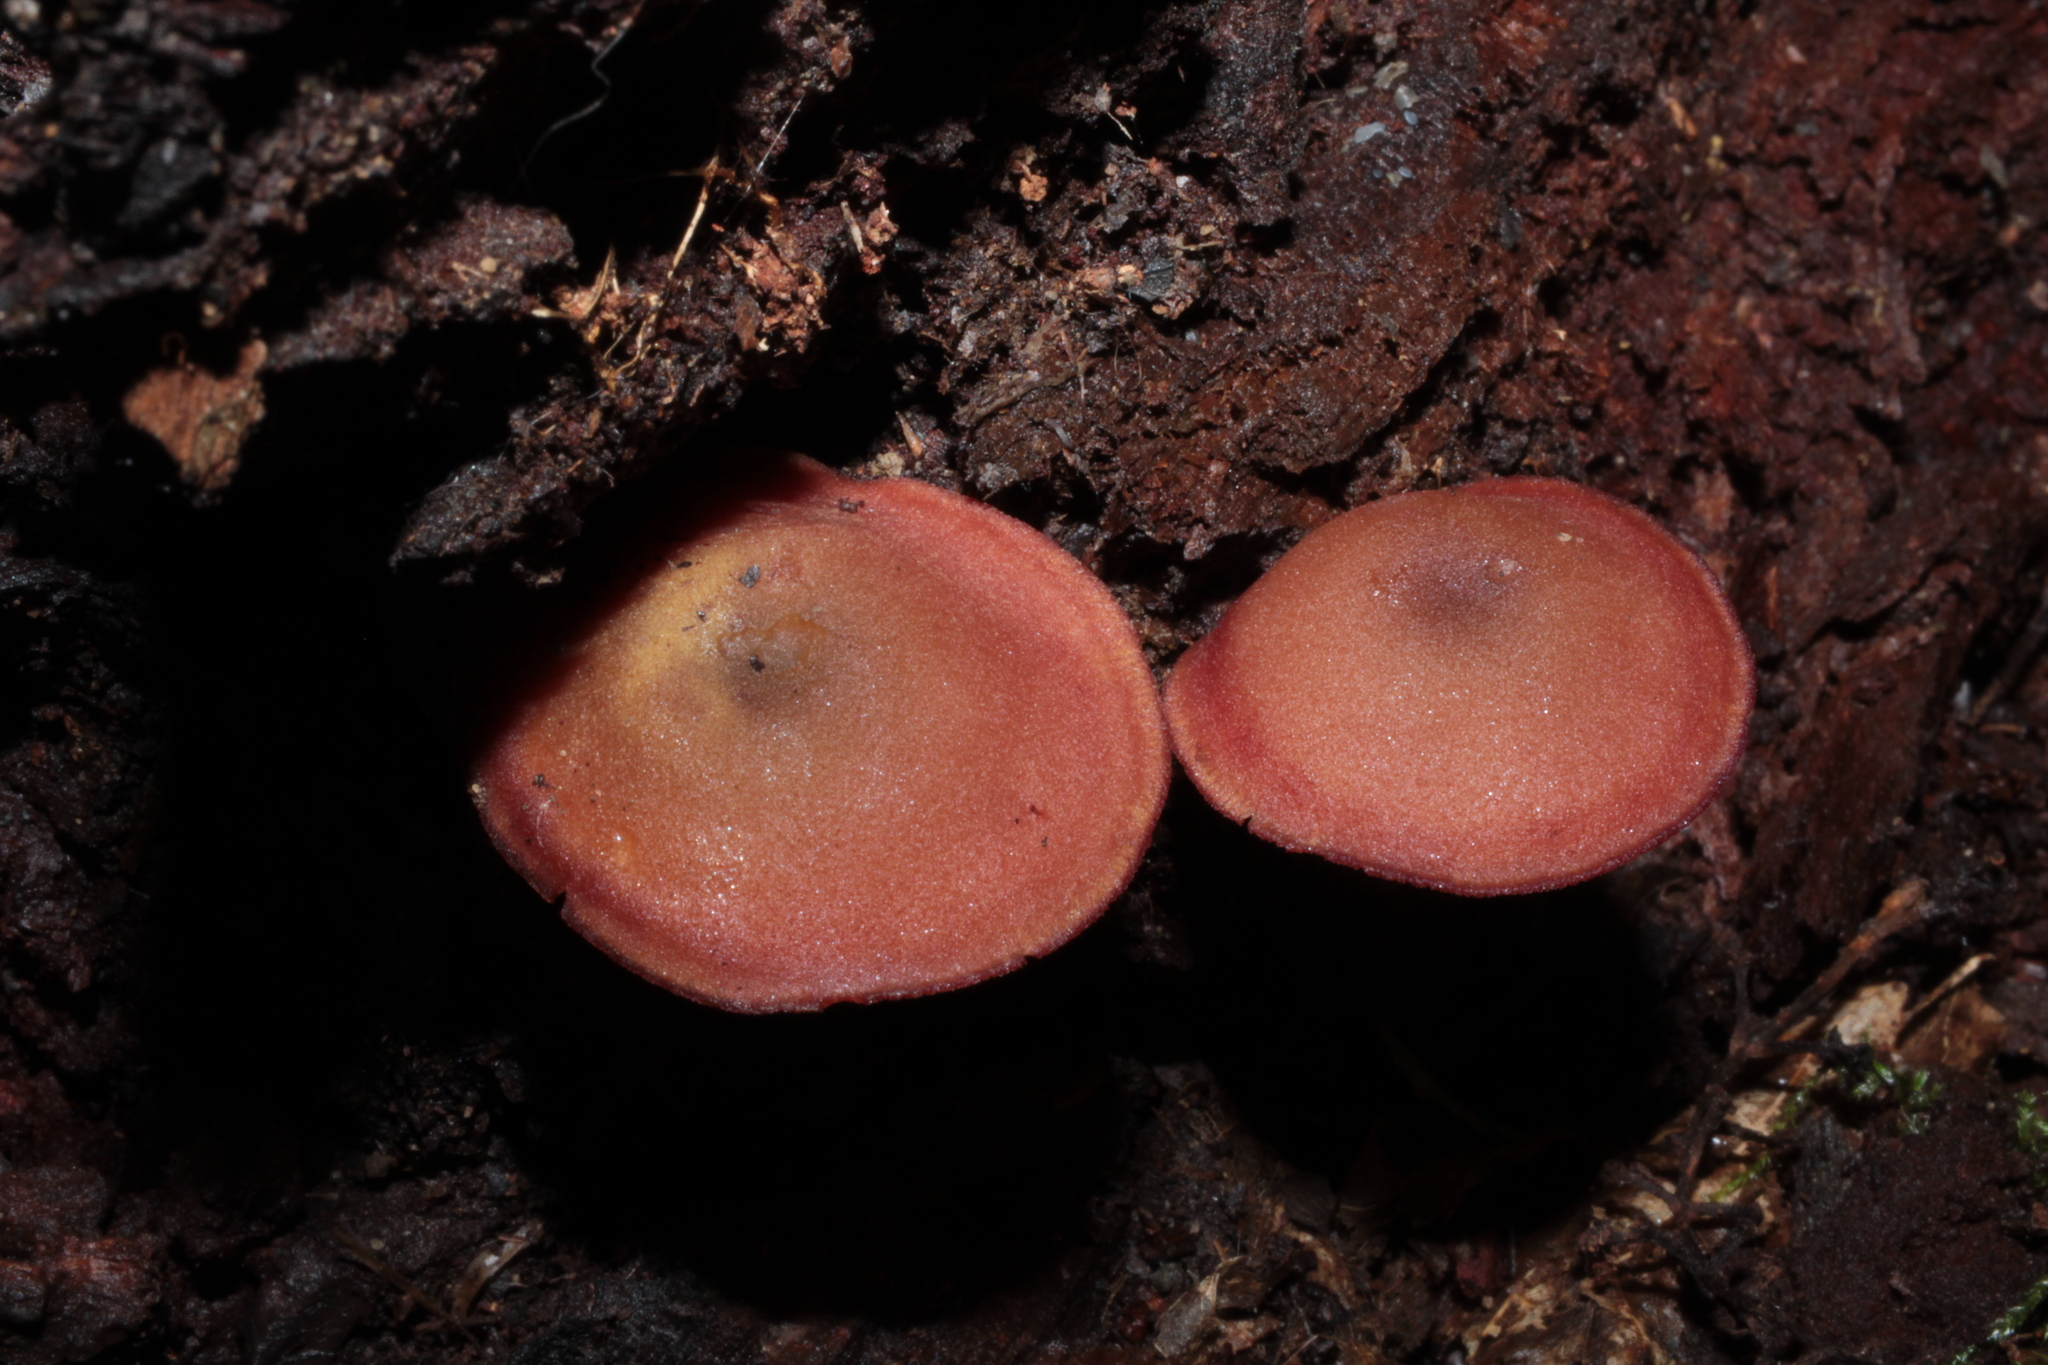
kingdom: Fungi
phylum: Basidiomycota
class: Agaricomycetes
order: Agaricales
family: Callistosporiaceae
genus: Callistosporium
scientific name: Callistosporium purpureomarginatum
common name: Purple-edged lute
